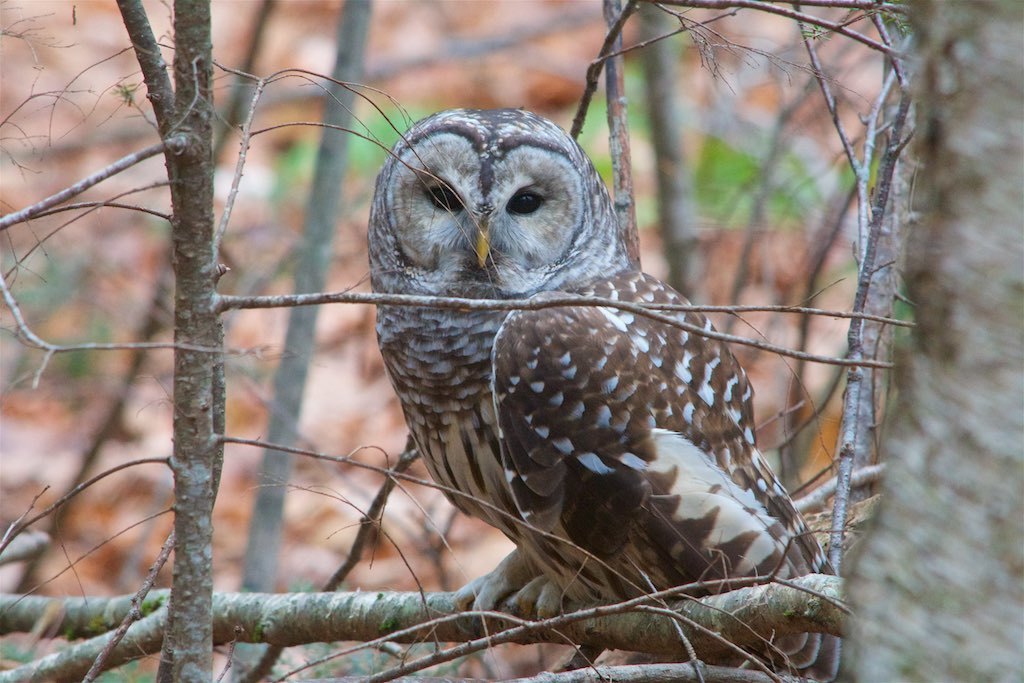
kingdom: Animalia
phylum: Chordata
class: Aves
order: Strigiformes
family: Strigidae
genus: Strix
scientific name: Strix varia
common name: Barred owl
